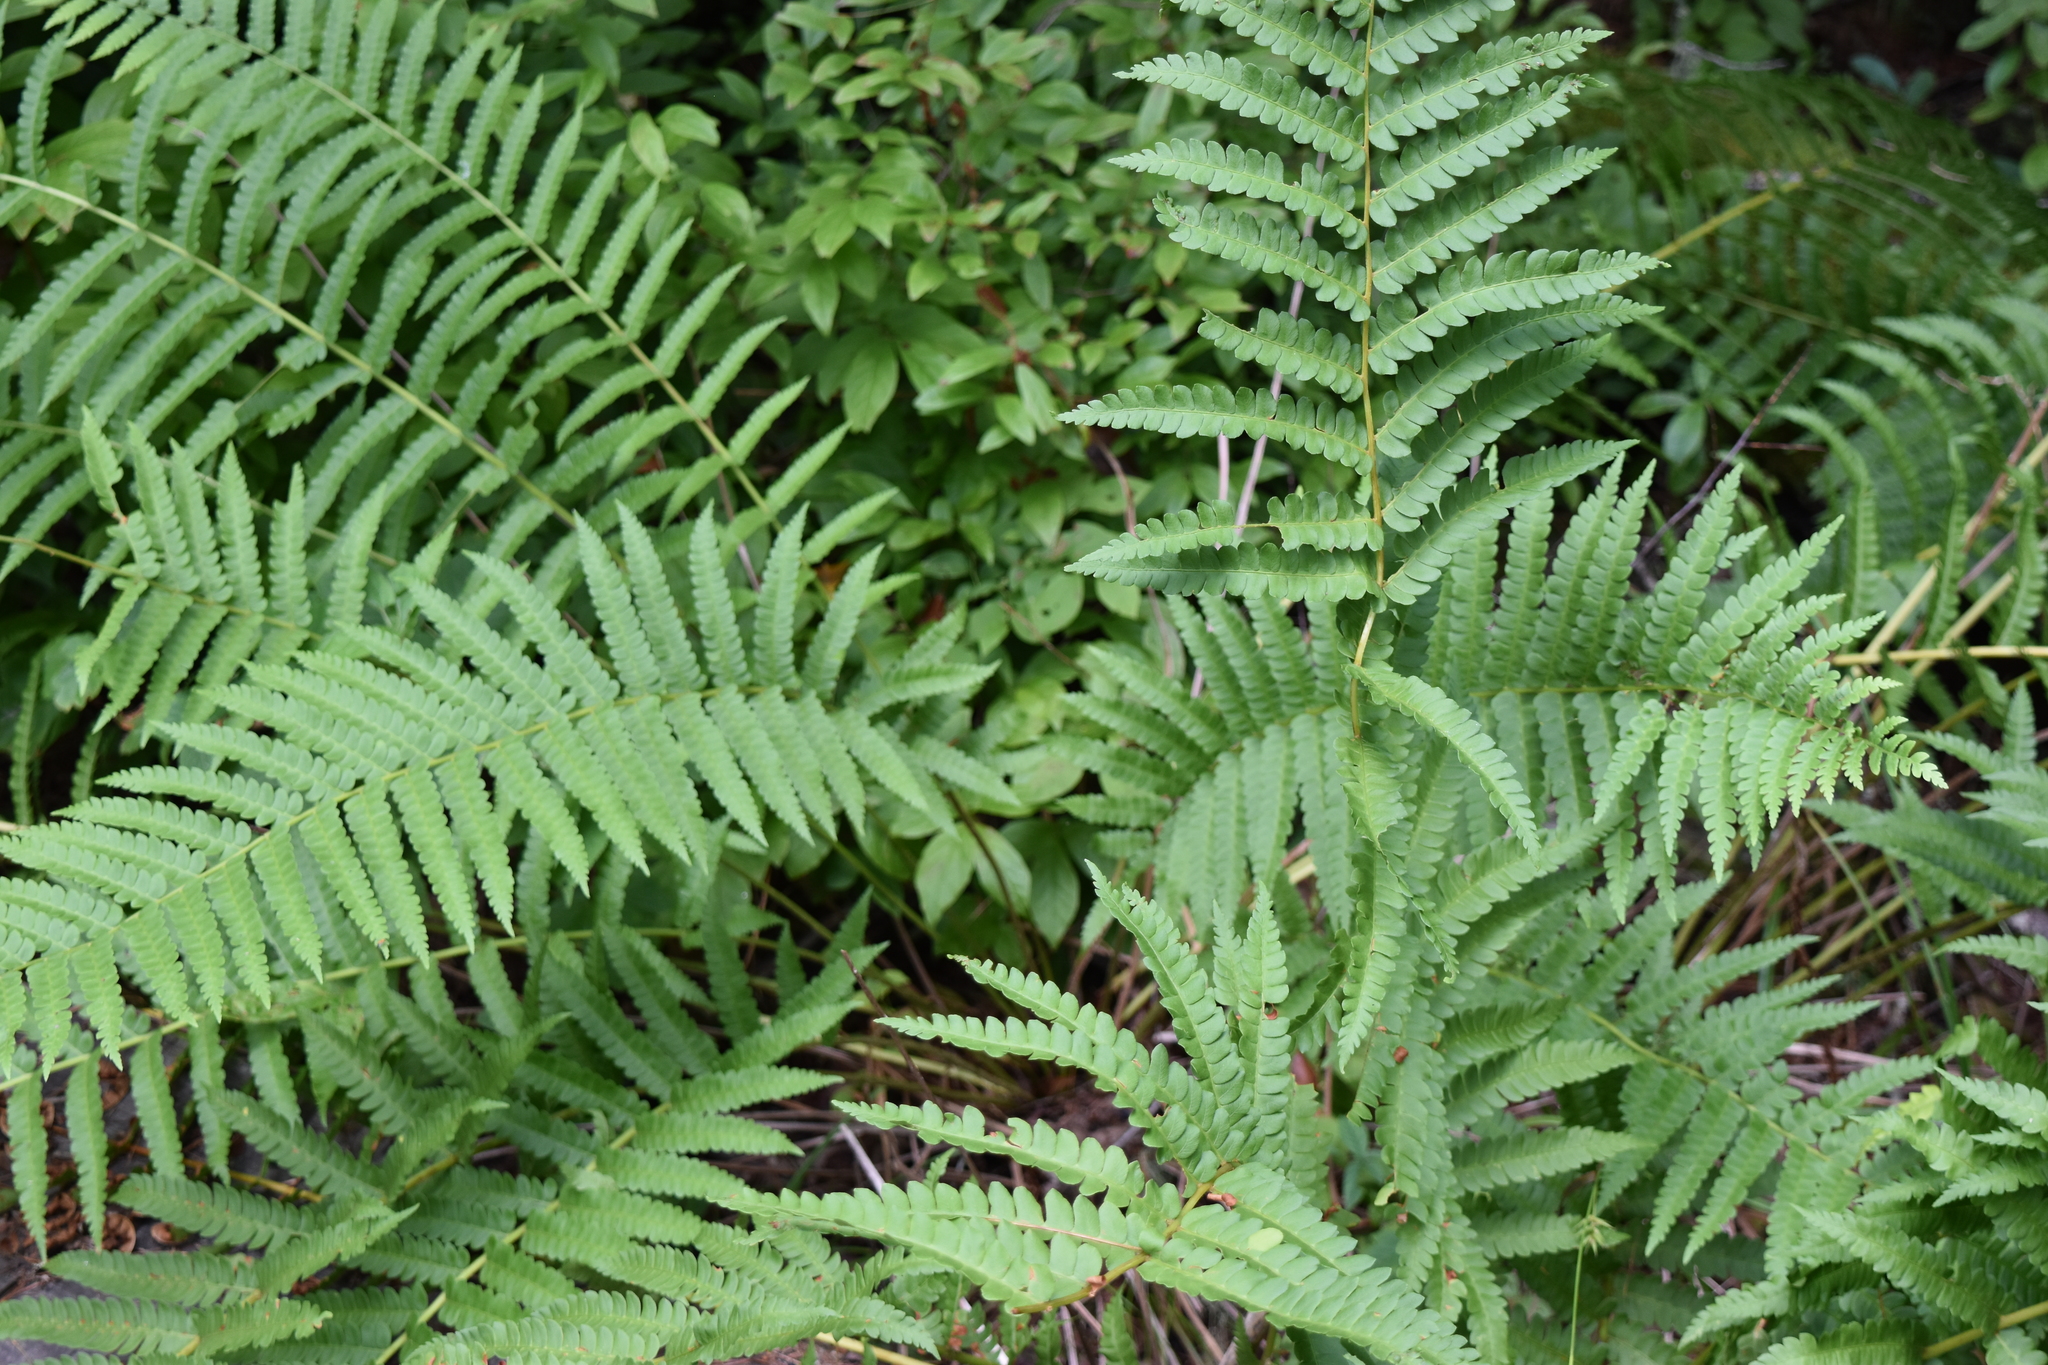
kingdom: Plantae
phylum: Tracheophyta
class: Polypodiopsida
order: Osmundales
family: Osmundaceae
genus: Osmundastrum
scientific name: Osmundastrum cinnamomeum
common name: Cinnamon fern
